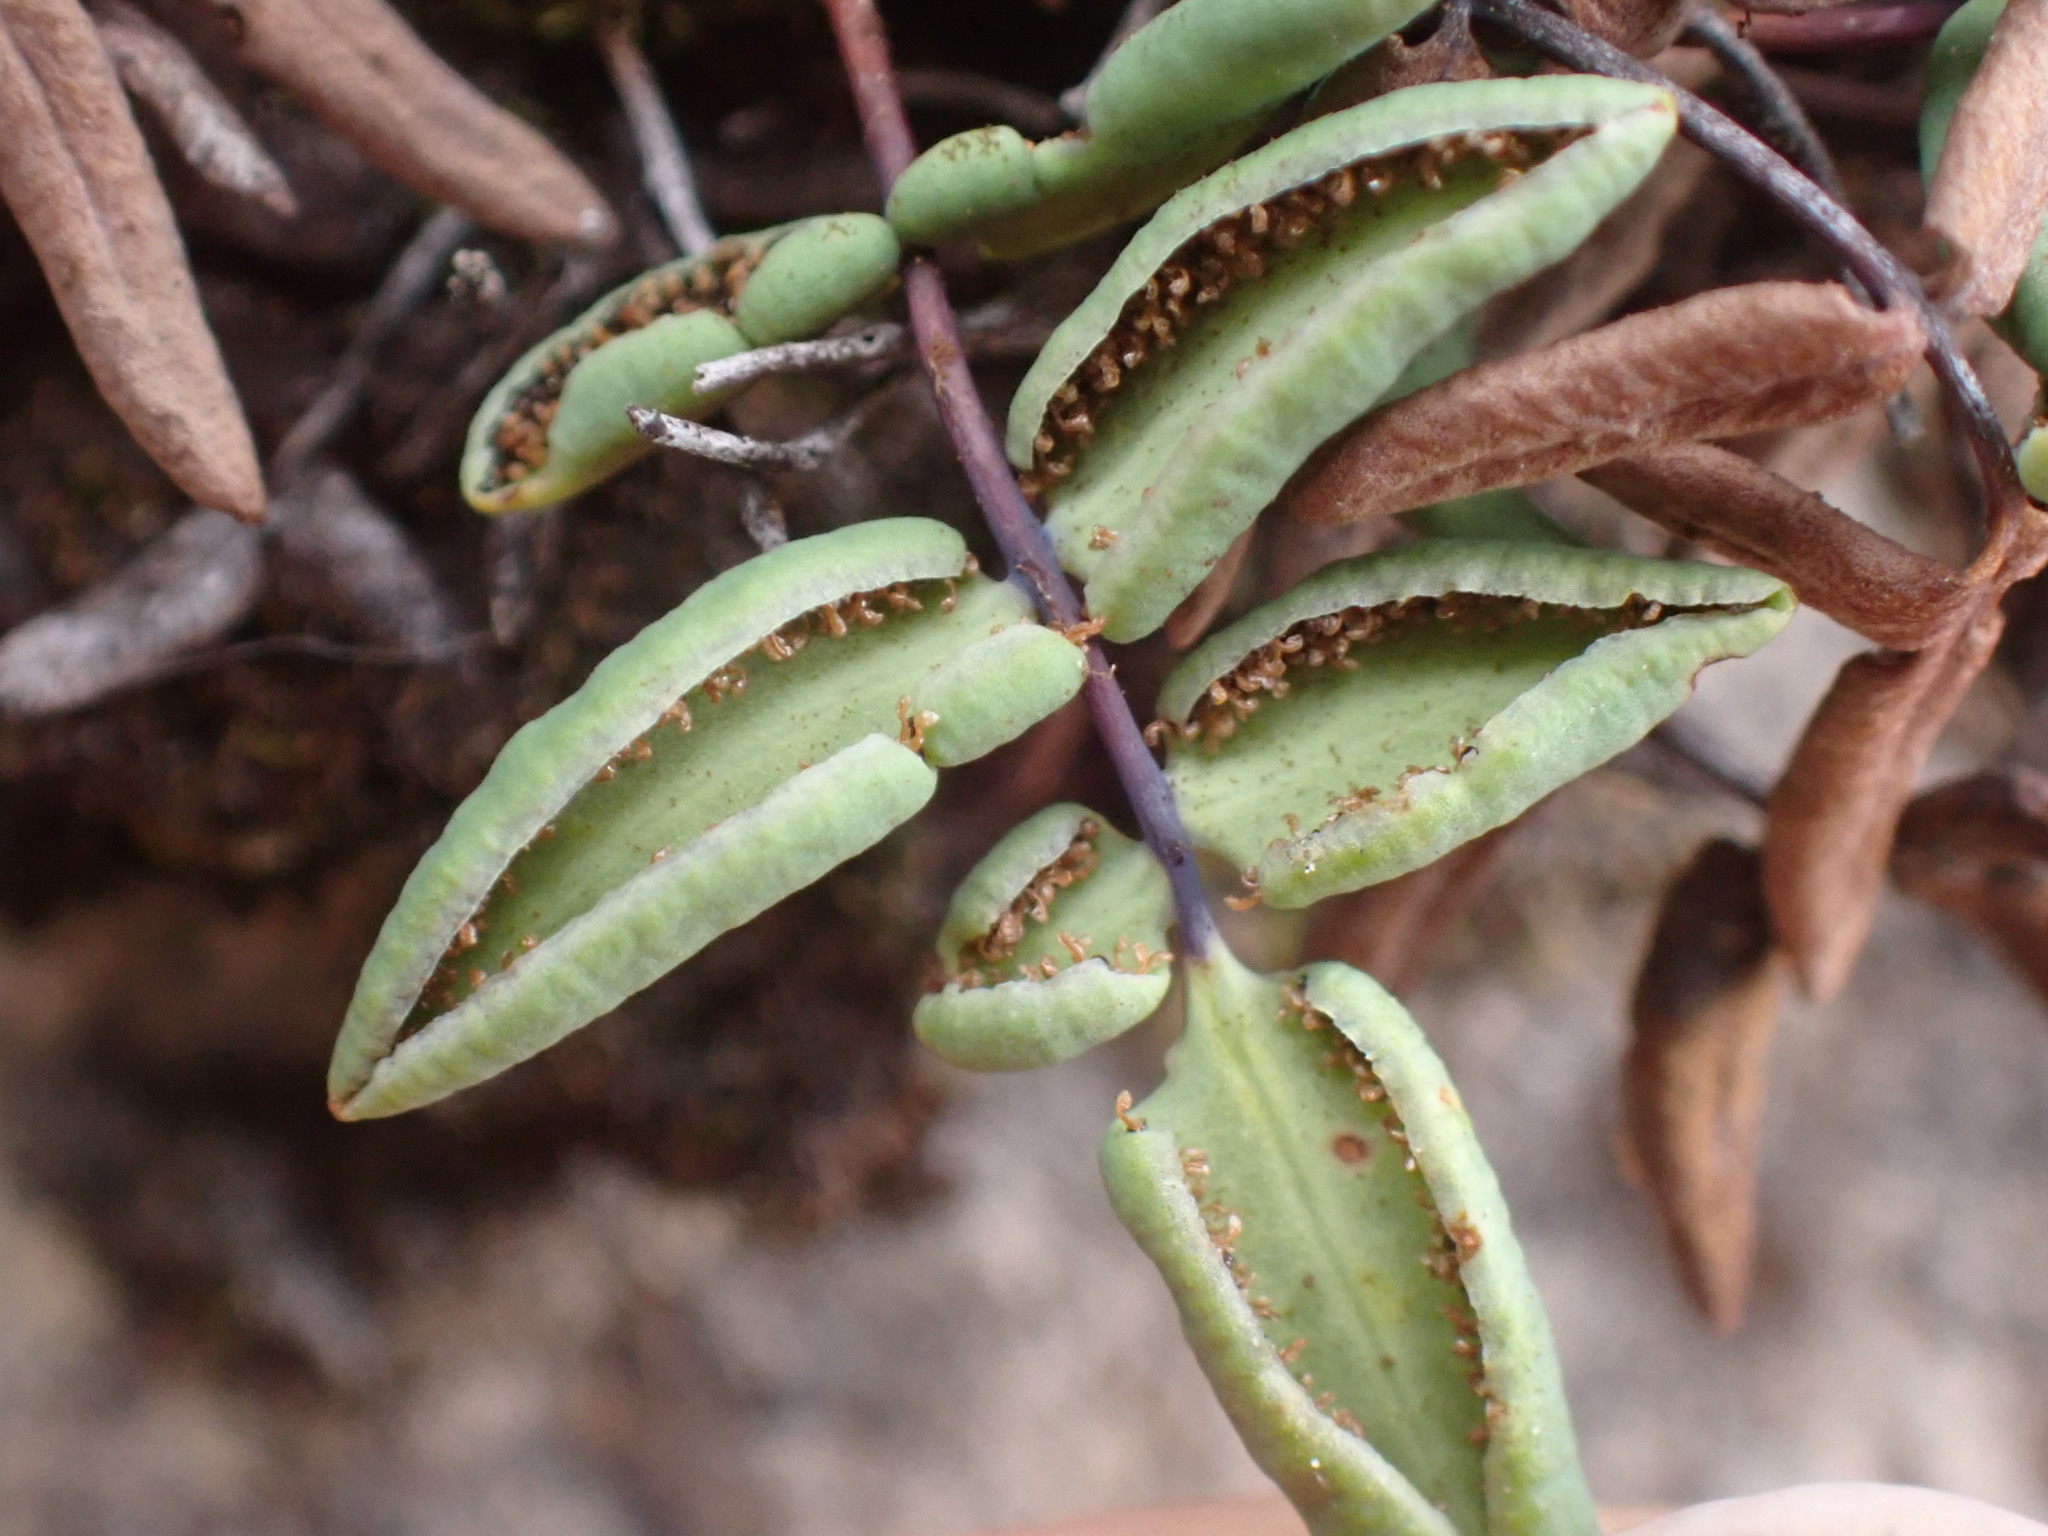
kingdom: Plantae
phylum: Tracheophyta
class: Polypodiopsida
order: Polypodiales
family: Pteridaceae
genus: Pellaea
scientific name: Pellaea glabella
